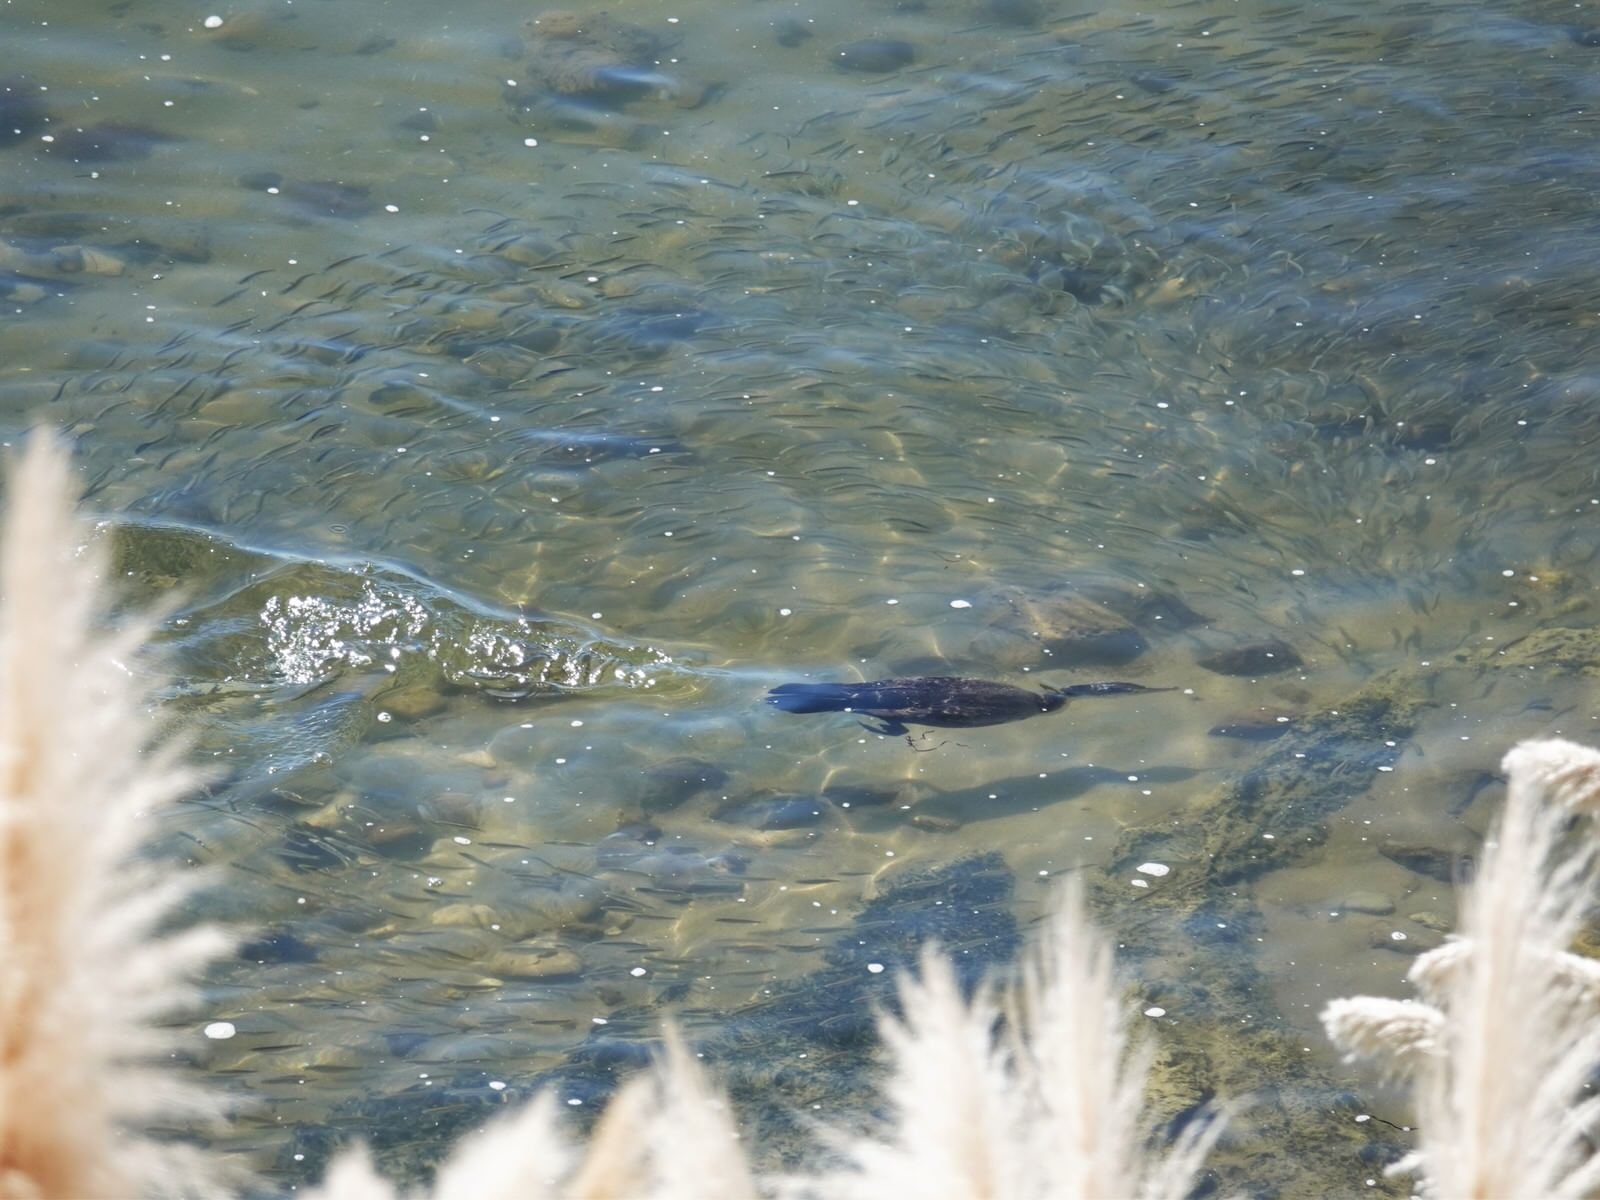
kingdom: Animalia
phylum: Chordata
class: Aves
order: Suliformes
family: Phalacrocoracidae
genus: Phalacrocorax
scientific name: Phalacrocorax varius
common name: Pied cormorant
